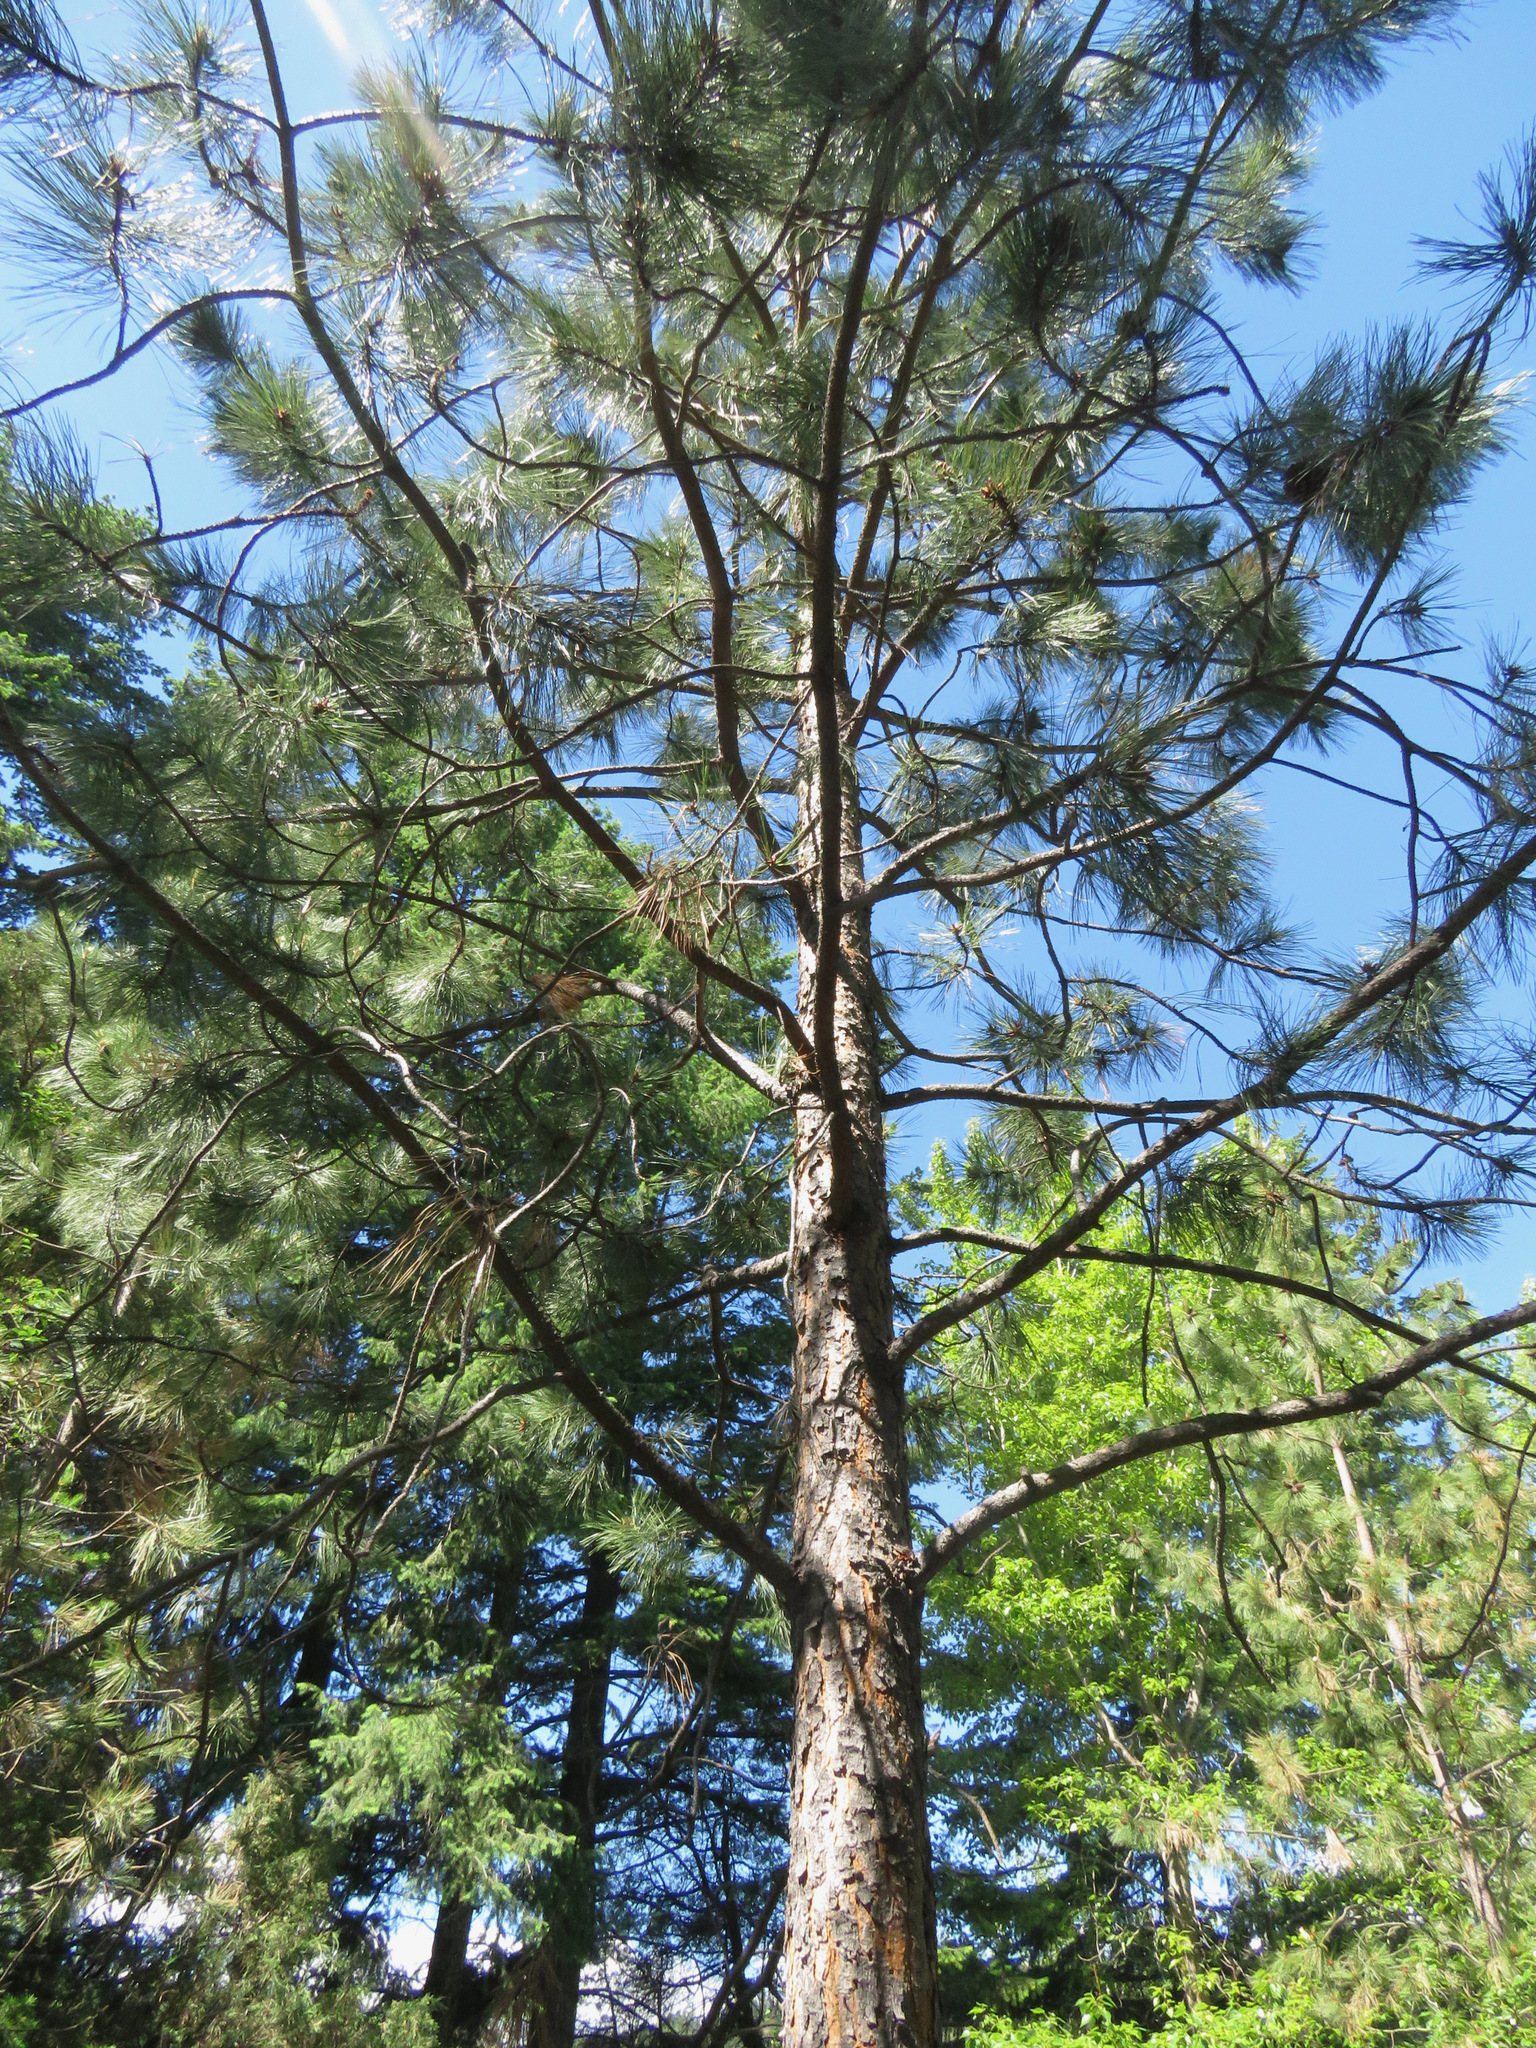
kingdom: Plantae
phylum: Tracheophyta
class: Pinopsida
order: Pinales
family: Pinaceae
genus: Pinus
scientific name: Pinus ponderosa
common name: Western yellow-pine
